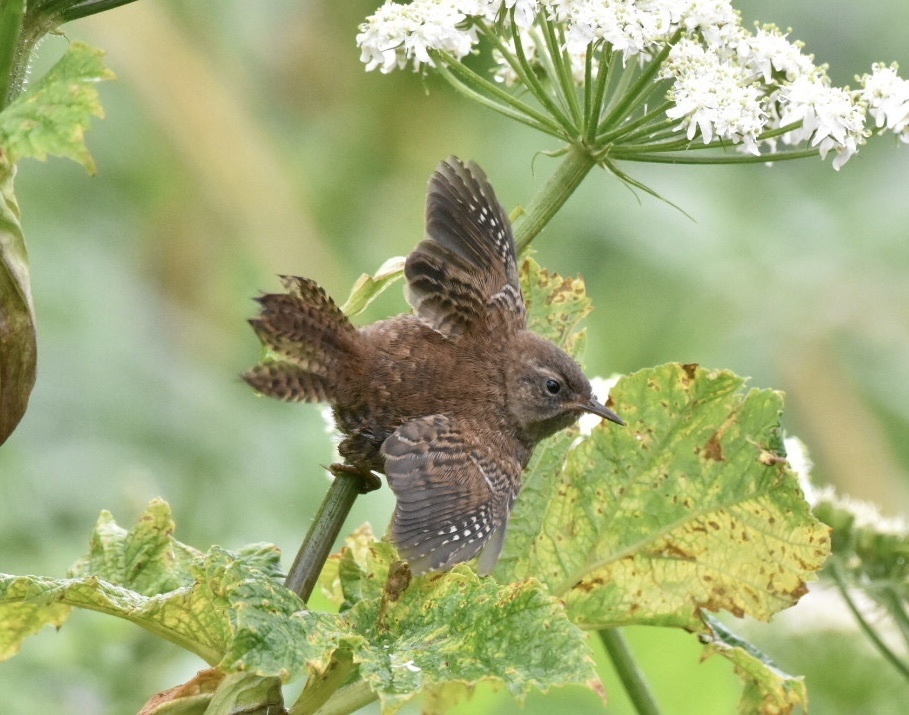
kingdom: Animalia
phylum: Chordata
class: Aves
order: Passeriformes
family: Troglodytidae
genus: Troglodytes
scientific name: Troglodytes troglodytes
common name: Eurasian wren
